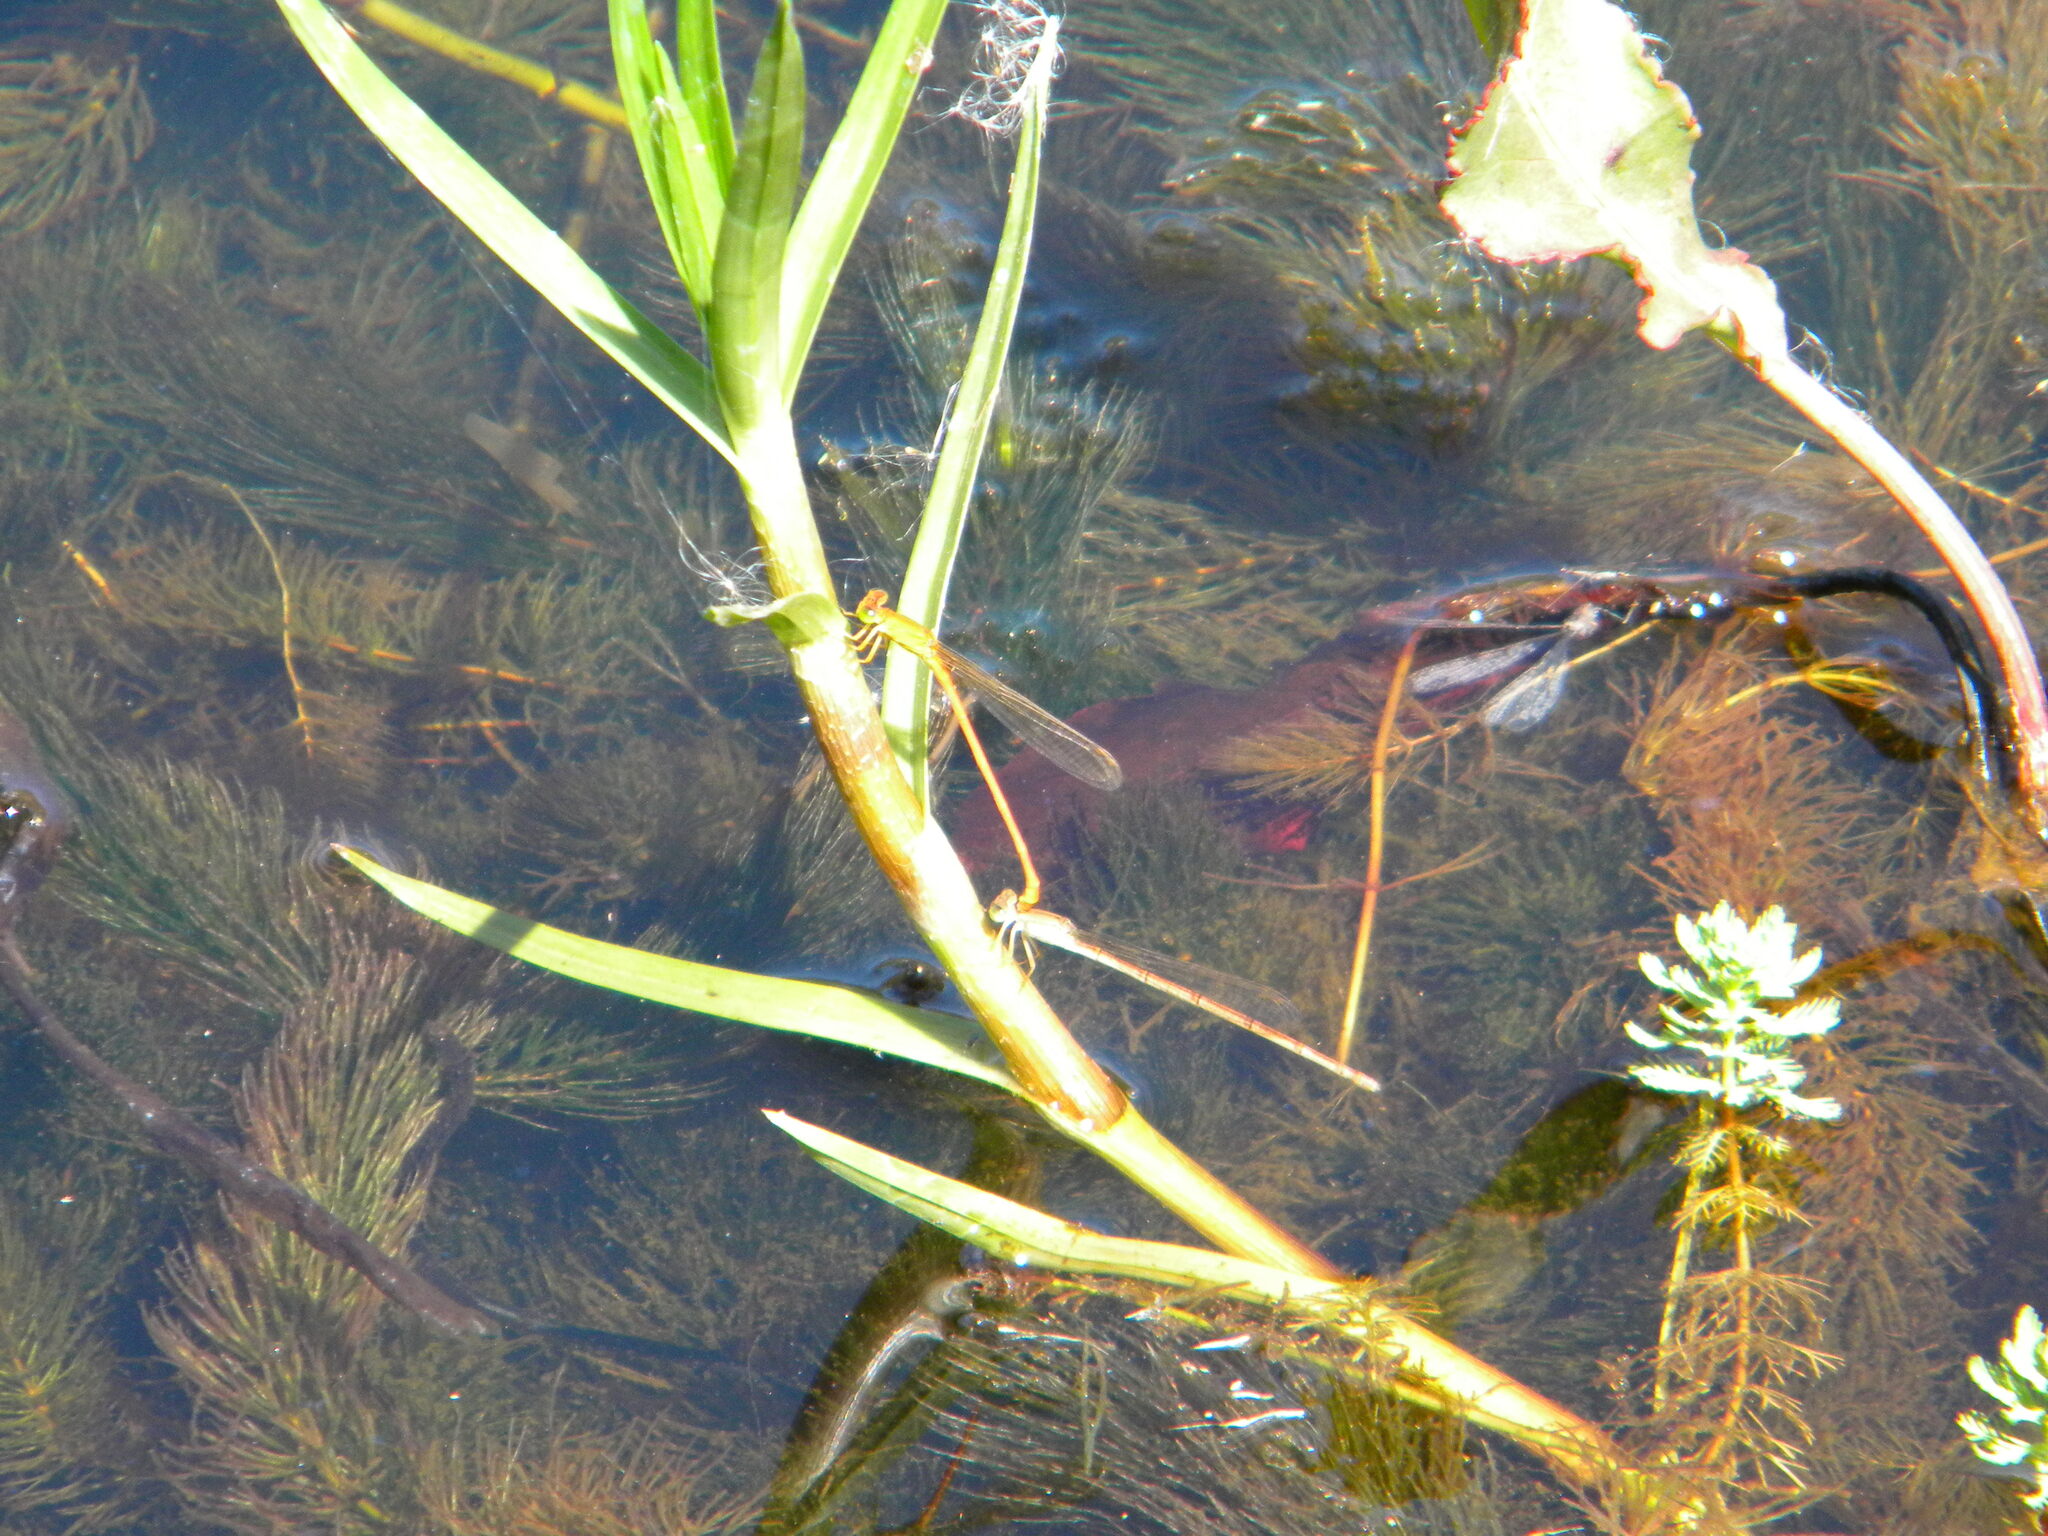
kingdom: Animalia
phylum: Arthropoda
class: Insecta
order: Odonata
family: Coenagrionidae
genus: Ceriagrion
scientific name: Ceriagrion glabrum
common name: Common pond damsel
